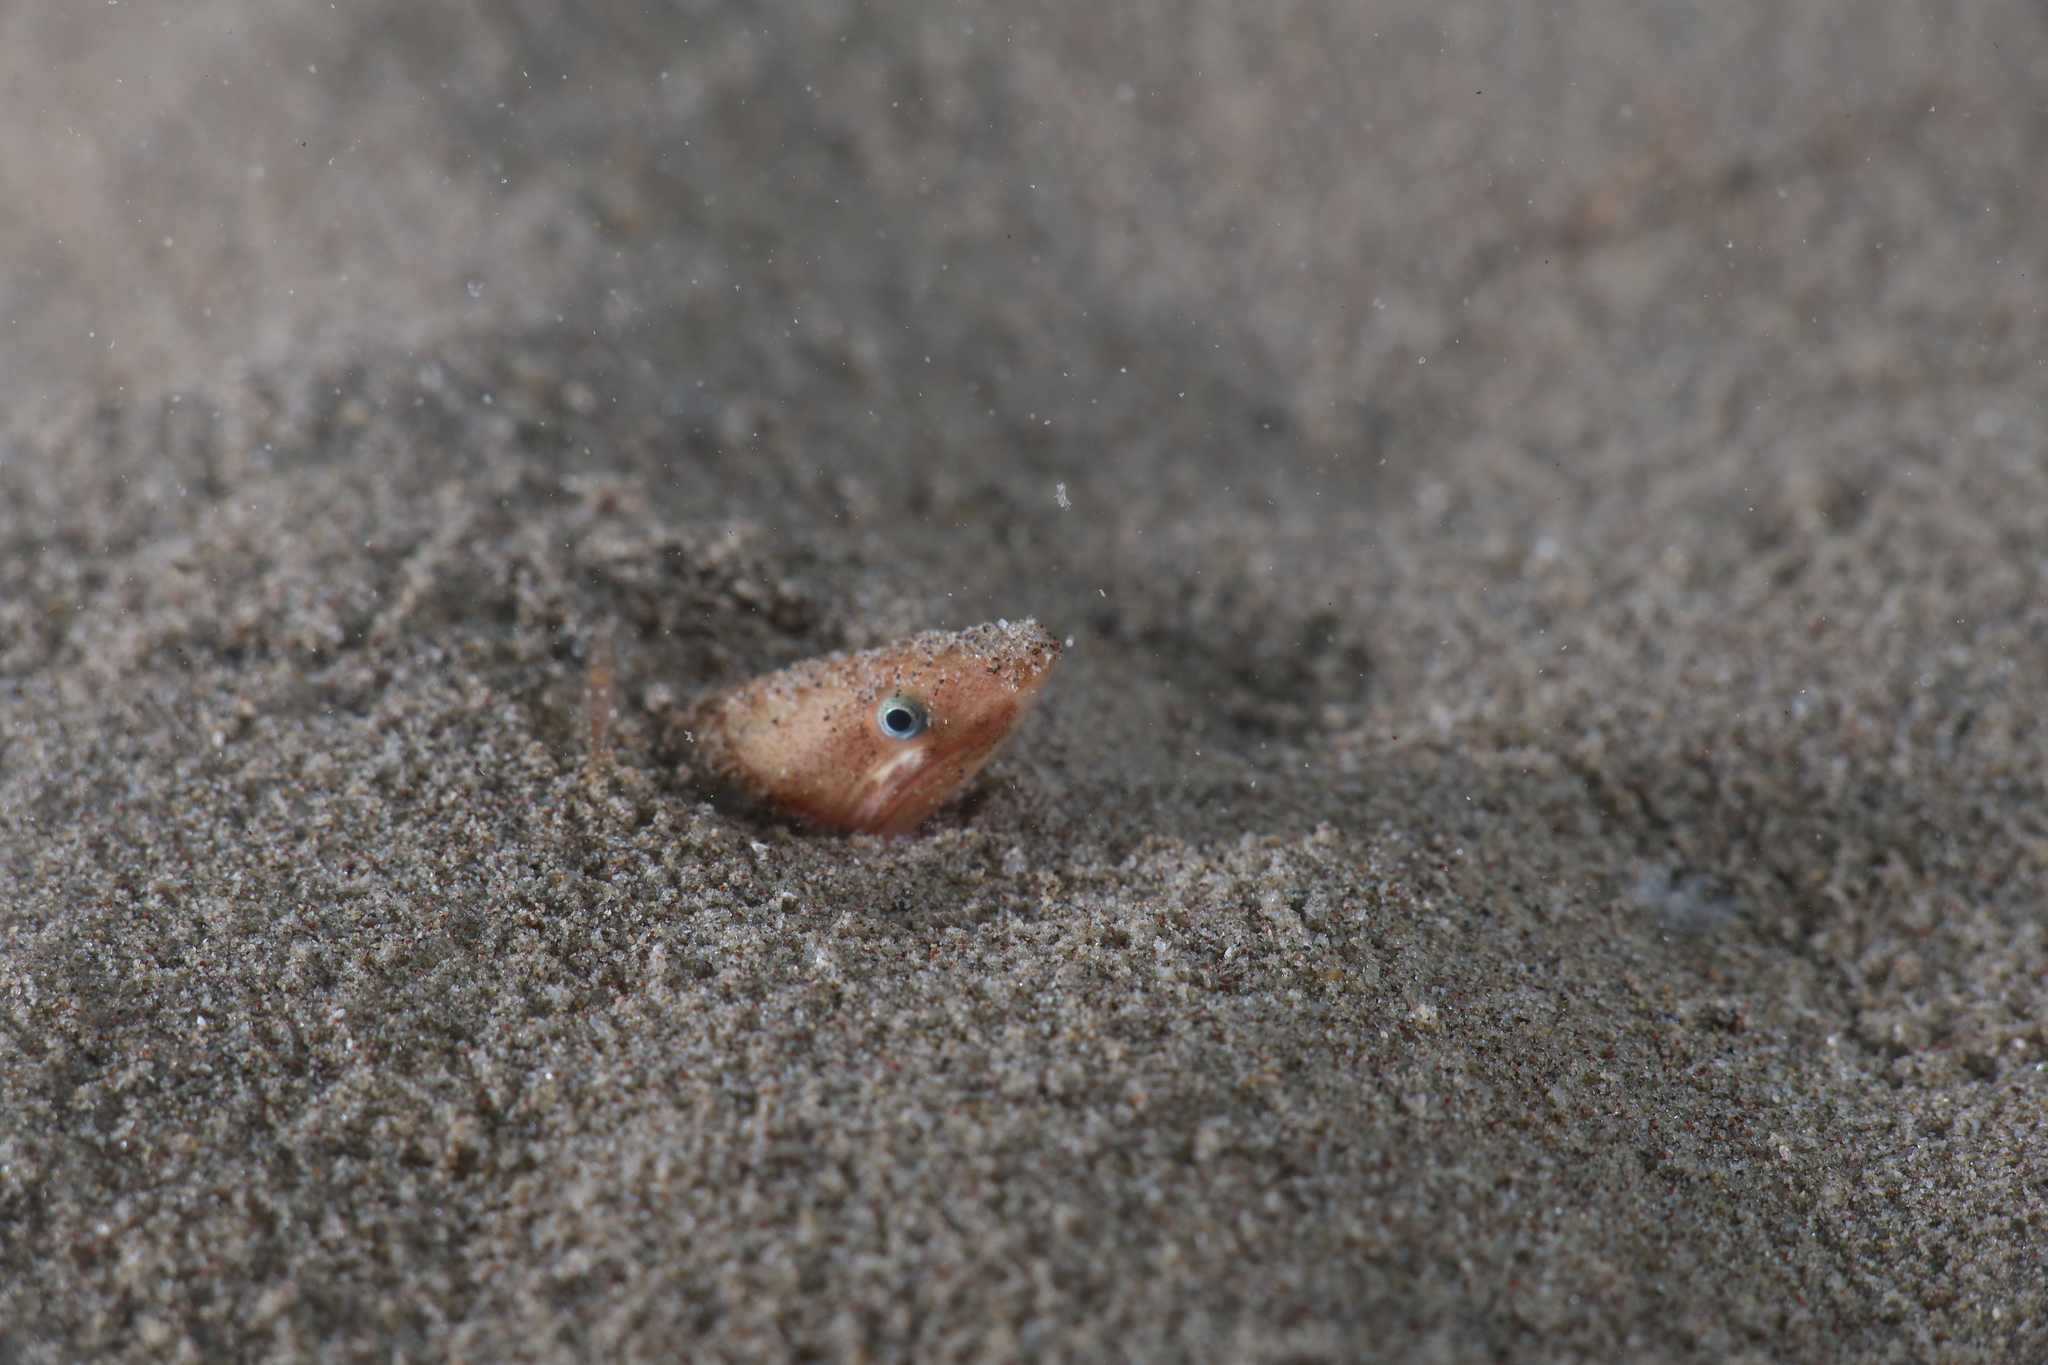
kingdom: Animalia
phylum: Chordata
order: Anguilliformes
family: Ophichthidae
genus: Dalophis
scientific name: Dalophis imberbis
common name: Armless snake eel
